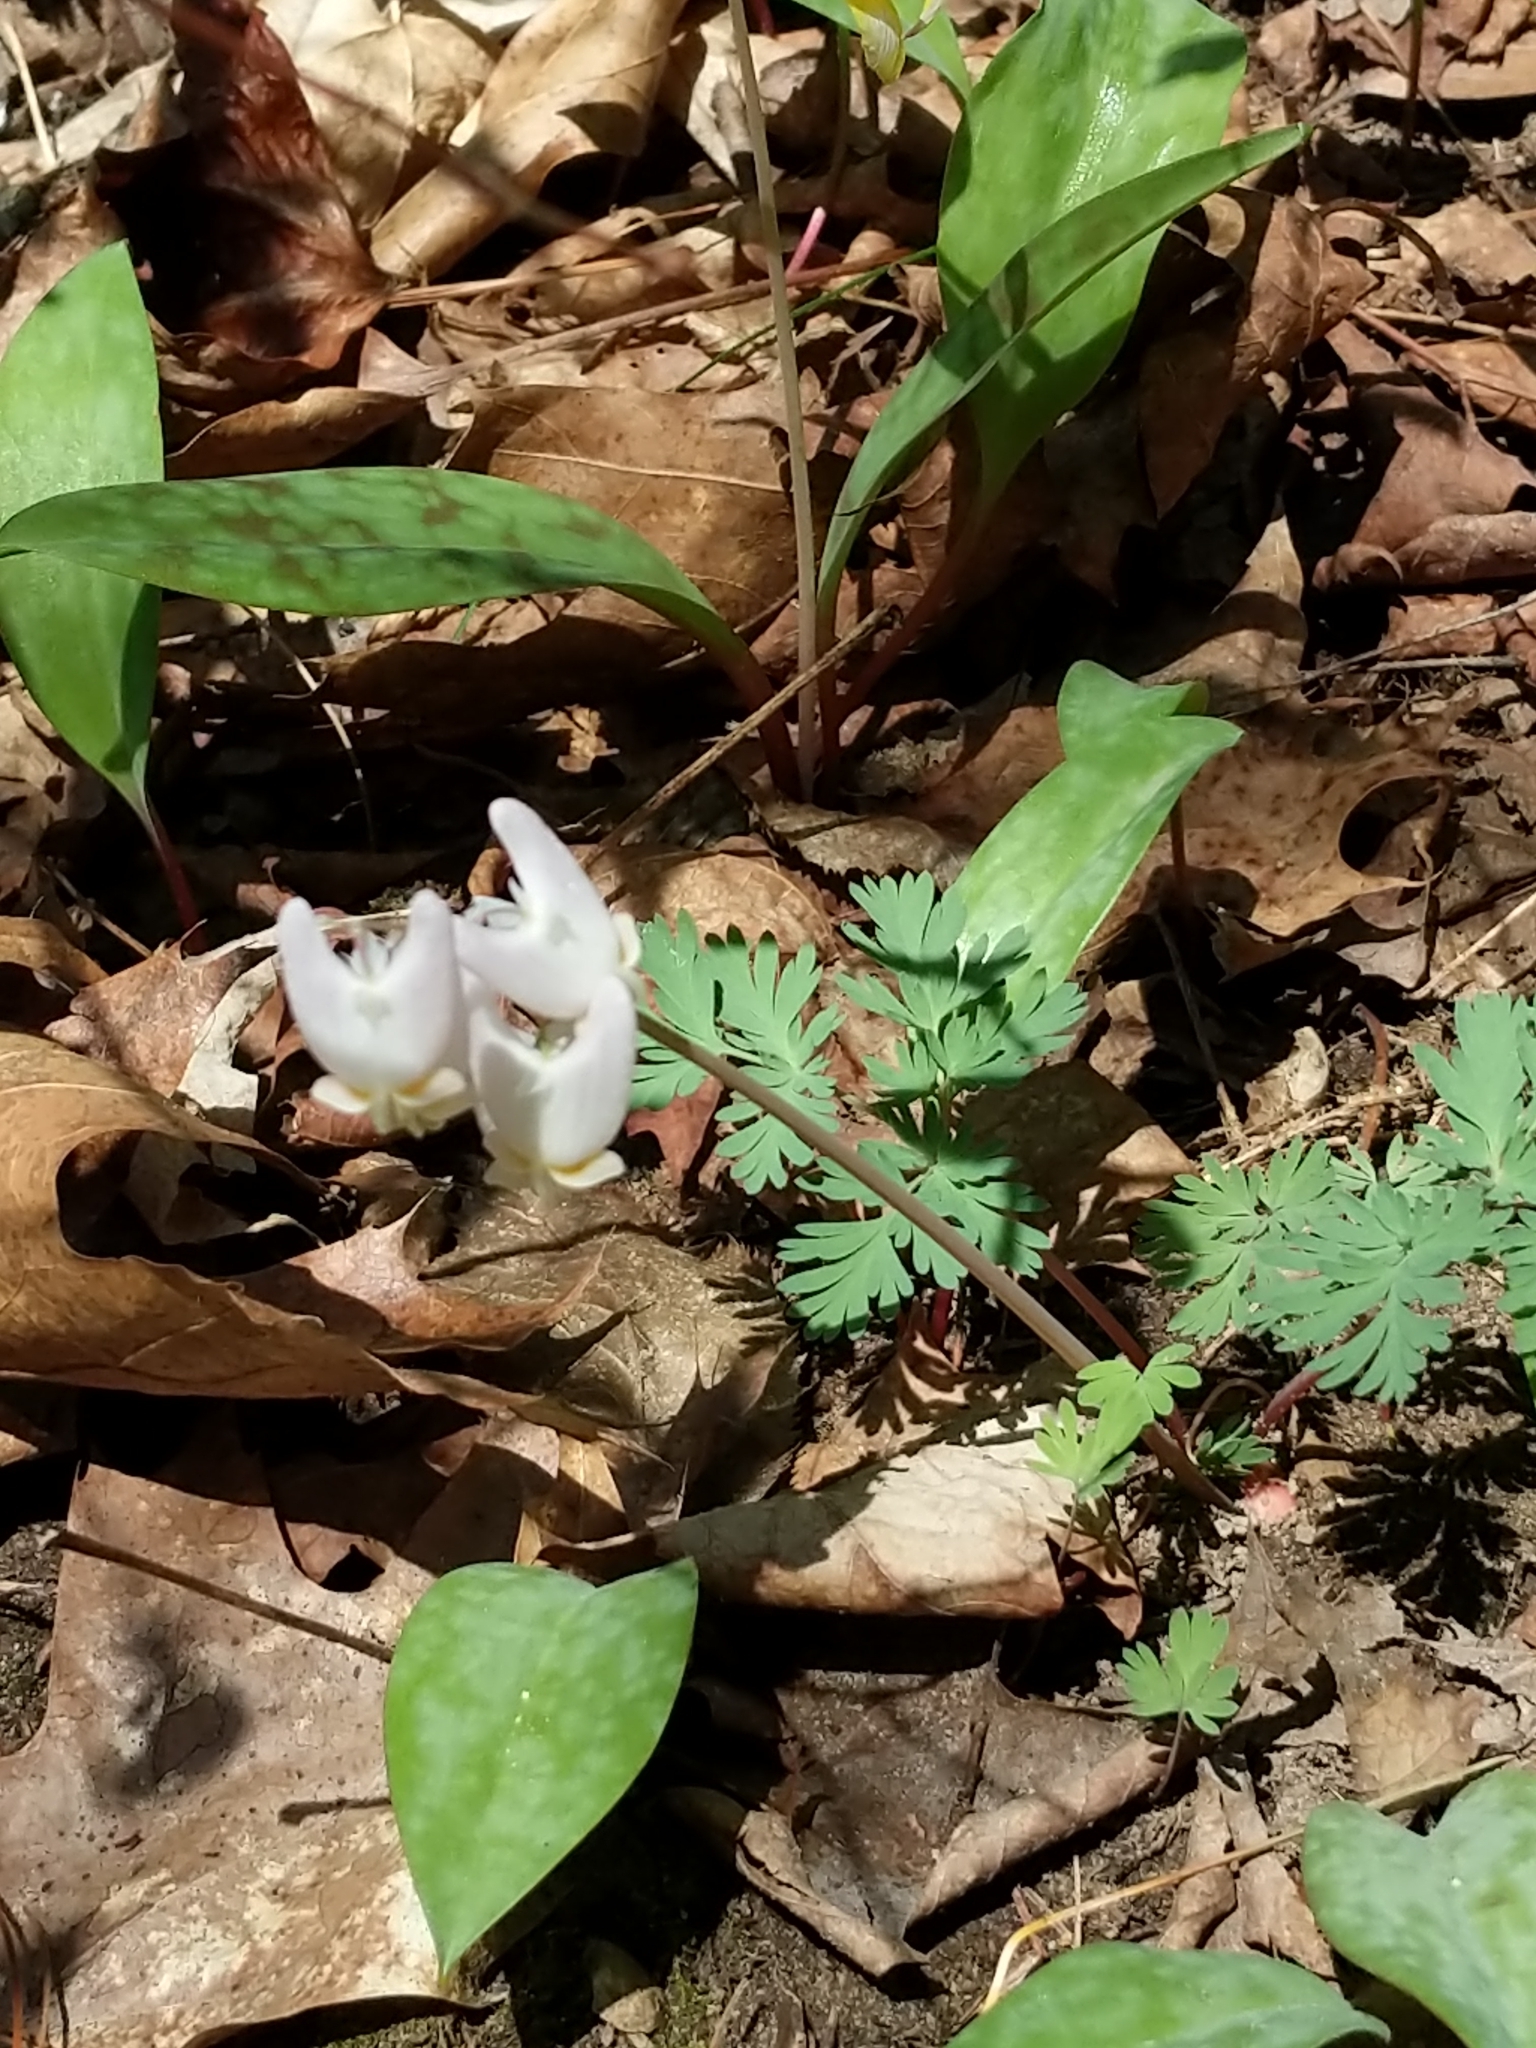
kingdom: Plantae
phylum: Tracheophyta
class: Magnoliopsida
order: Ranunculales
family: Papaveraceae
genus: Dicentra
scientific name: Dicentra cucullaria
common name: Dutchman's breeches
